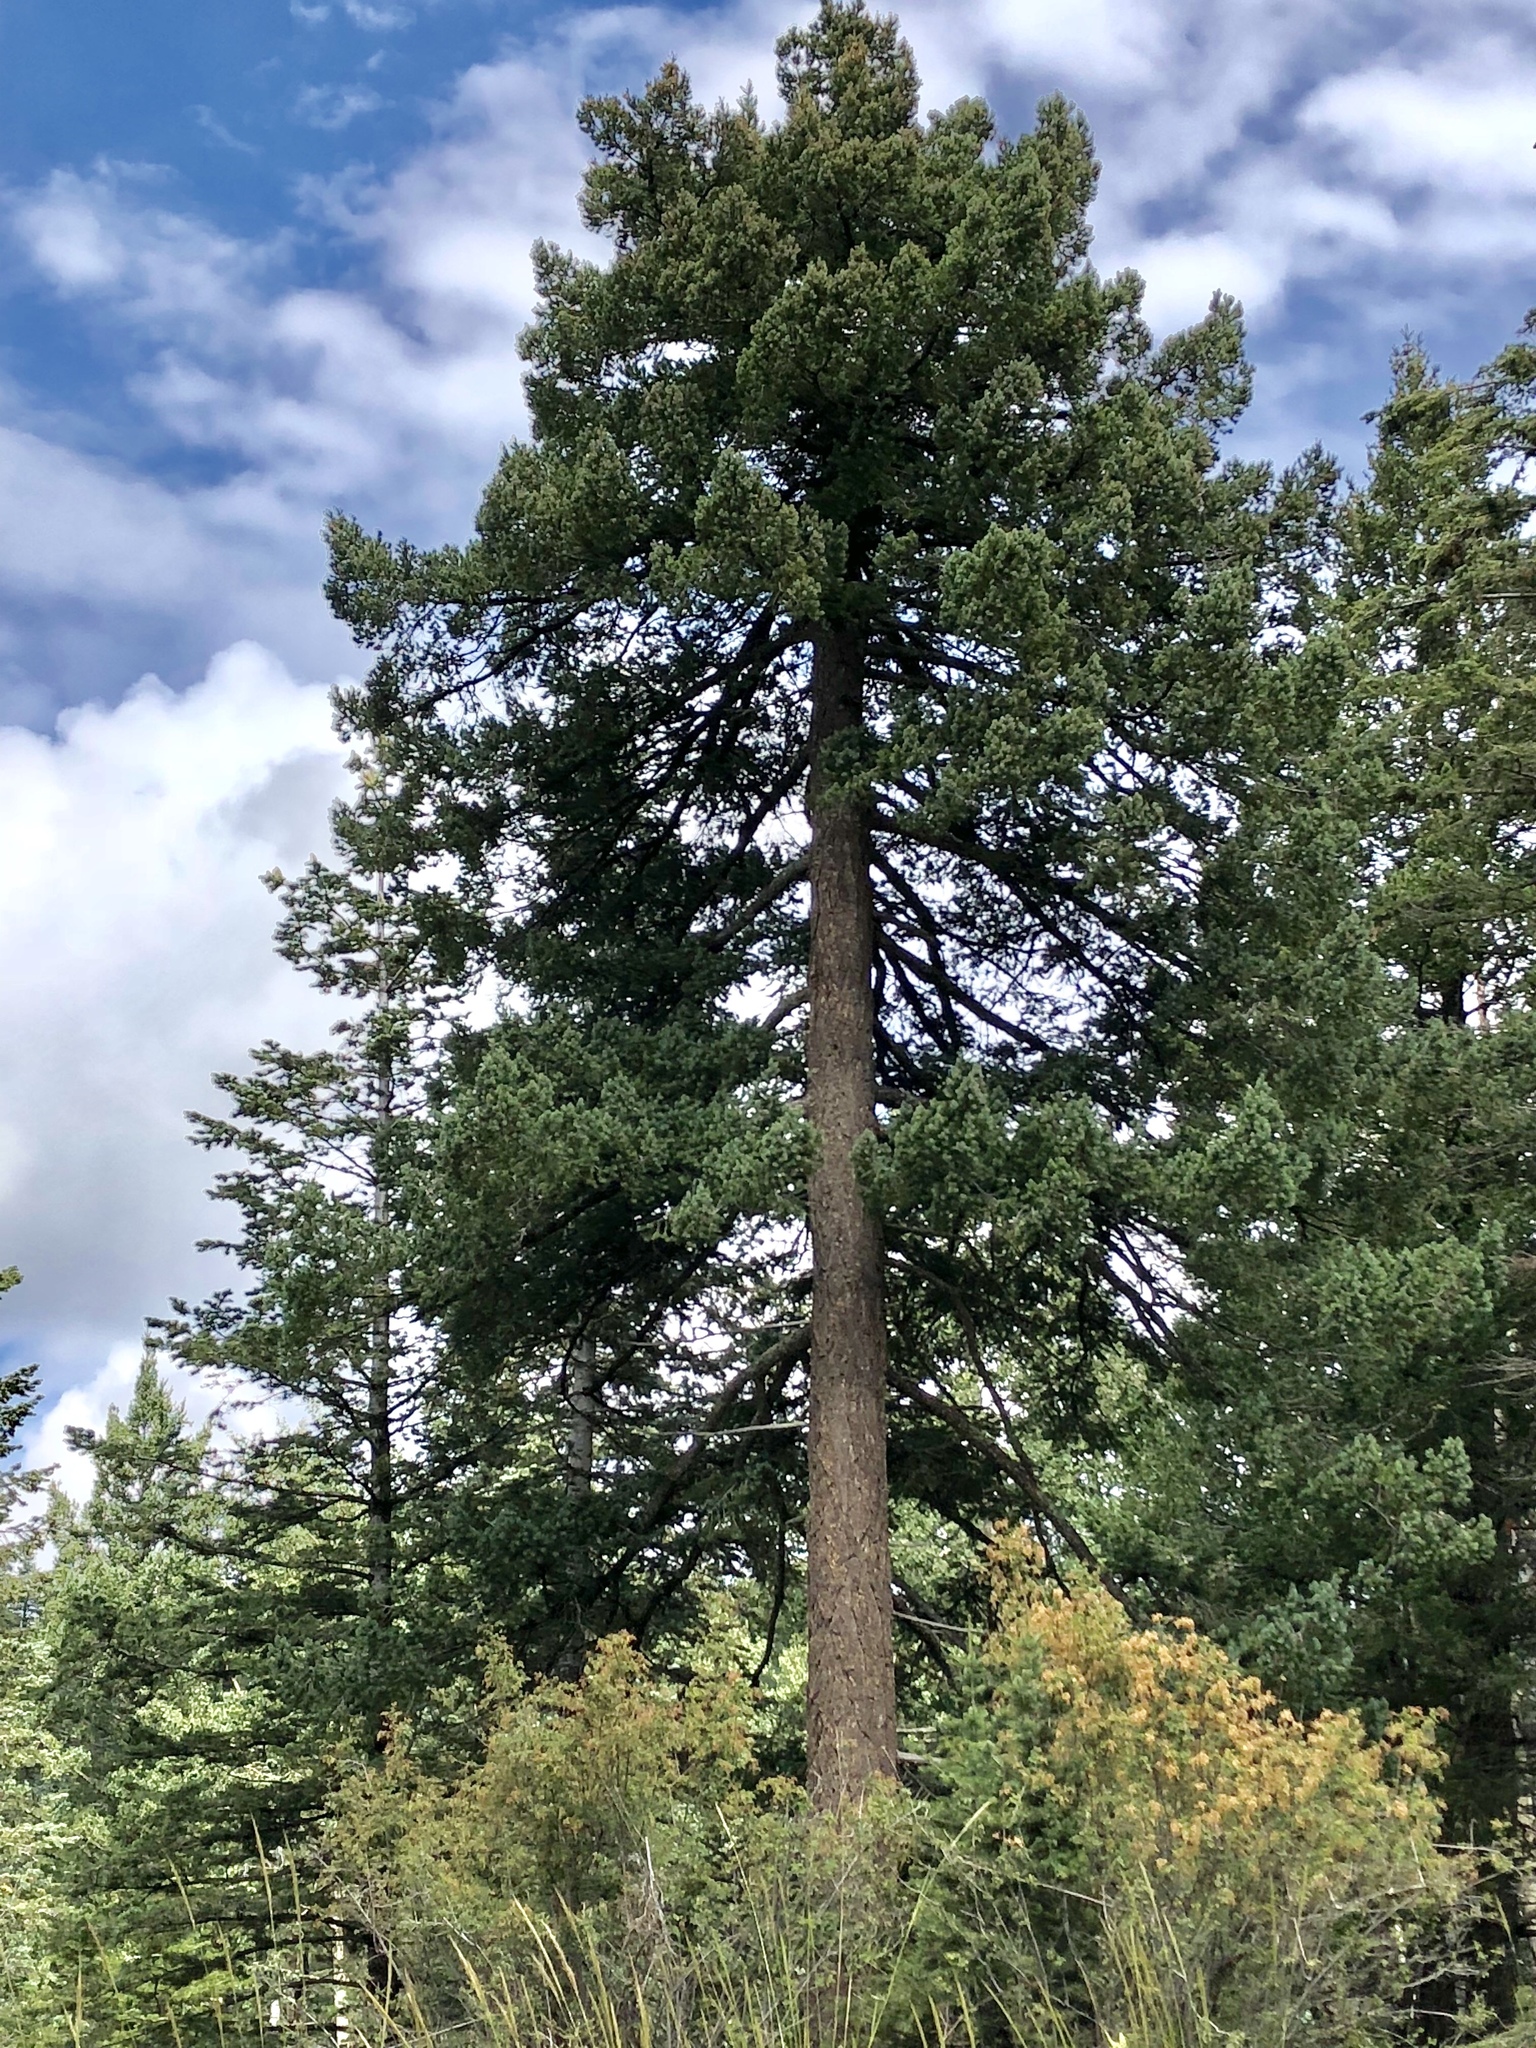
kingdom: Plantae
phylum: Tracheophyta
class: Pinopsida
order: Pinales
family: Pinaceae
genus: Pseudotsuga
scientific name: Pseudotsuga menziesii
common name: Douglas fir
